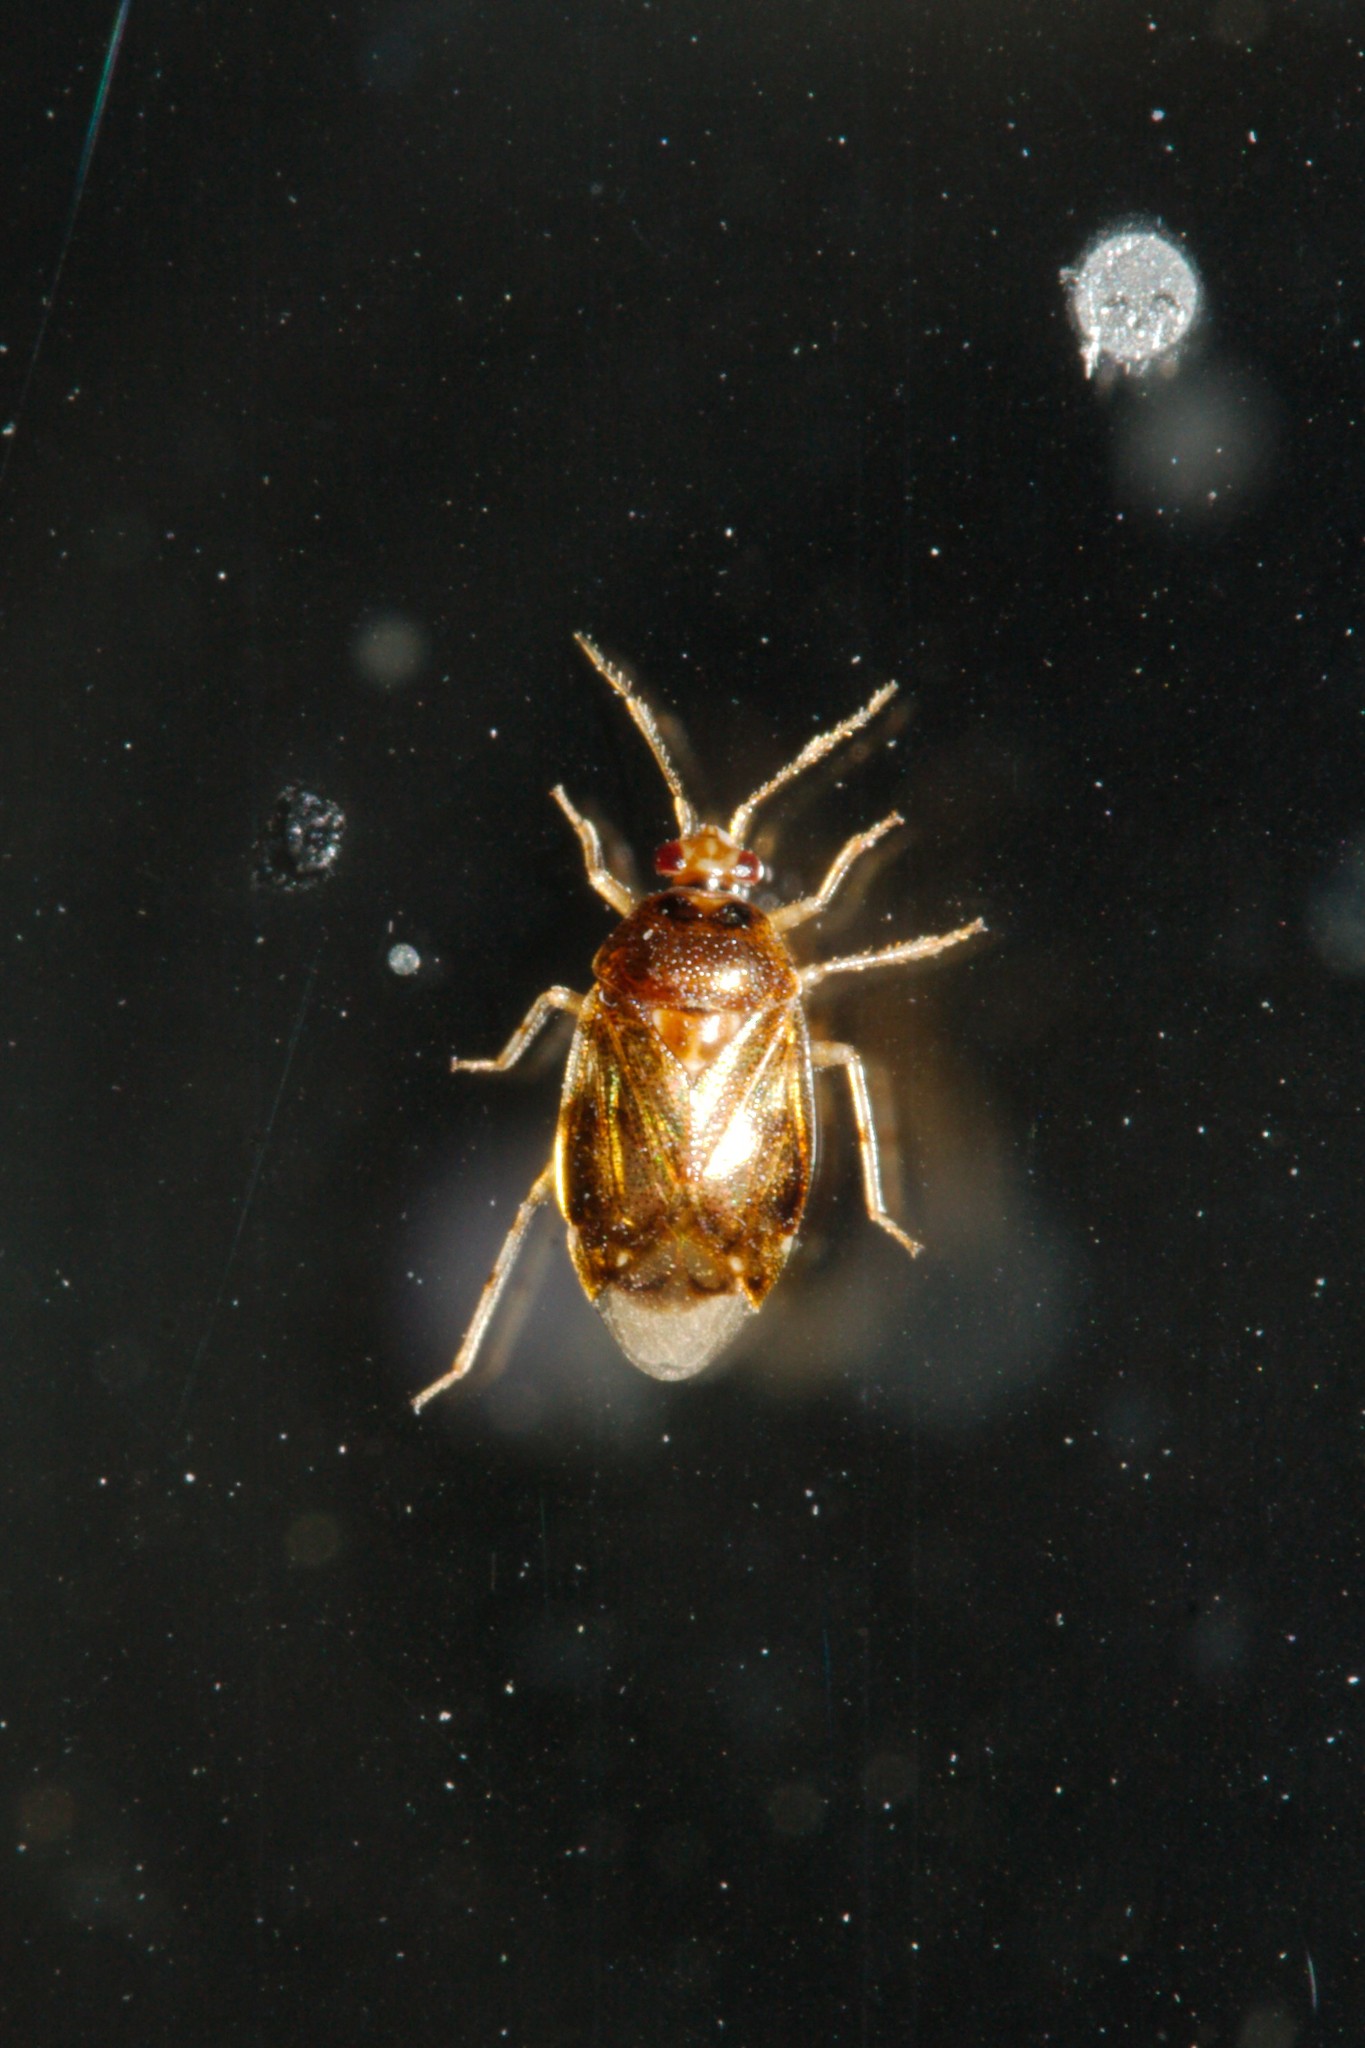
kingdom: Animalia
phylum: Arthropoda
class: Insecta
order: Hemiptera
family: Miridae
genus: Deraeocoris
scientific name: Deraeocoris lutescens
